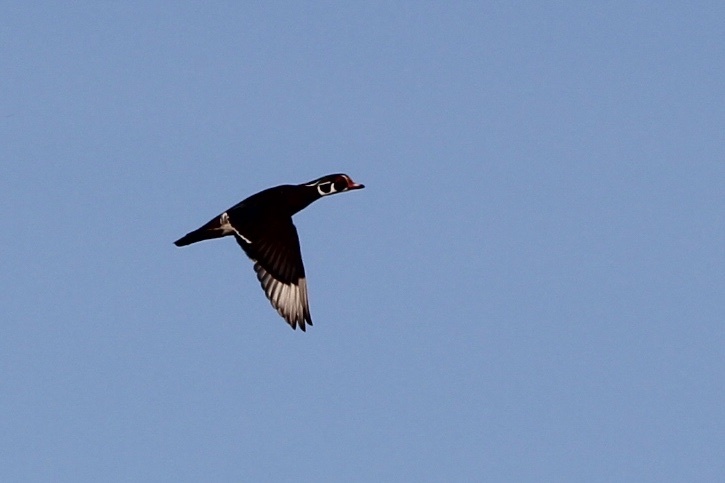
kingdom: Animalia
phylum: Chordata
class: Aves
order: Anseriformes
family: Anatidae
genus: Aix
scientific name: Aix sponsa
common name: Wood duck
